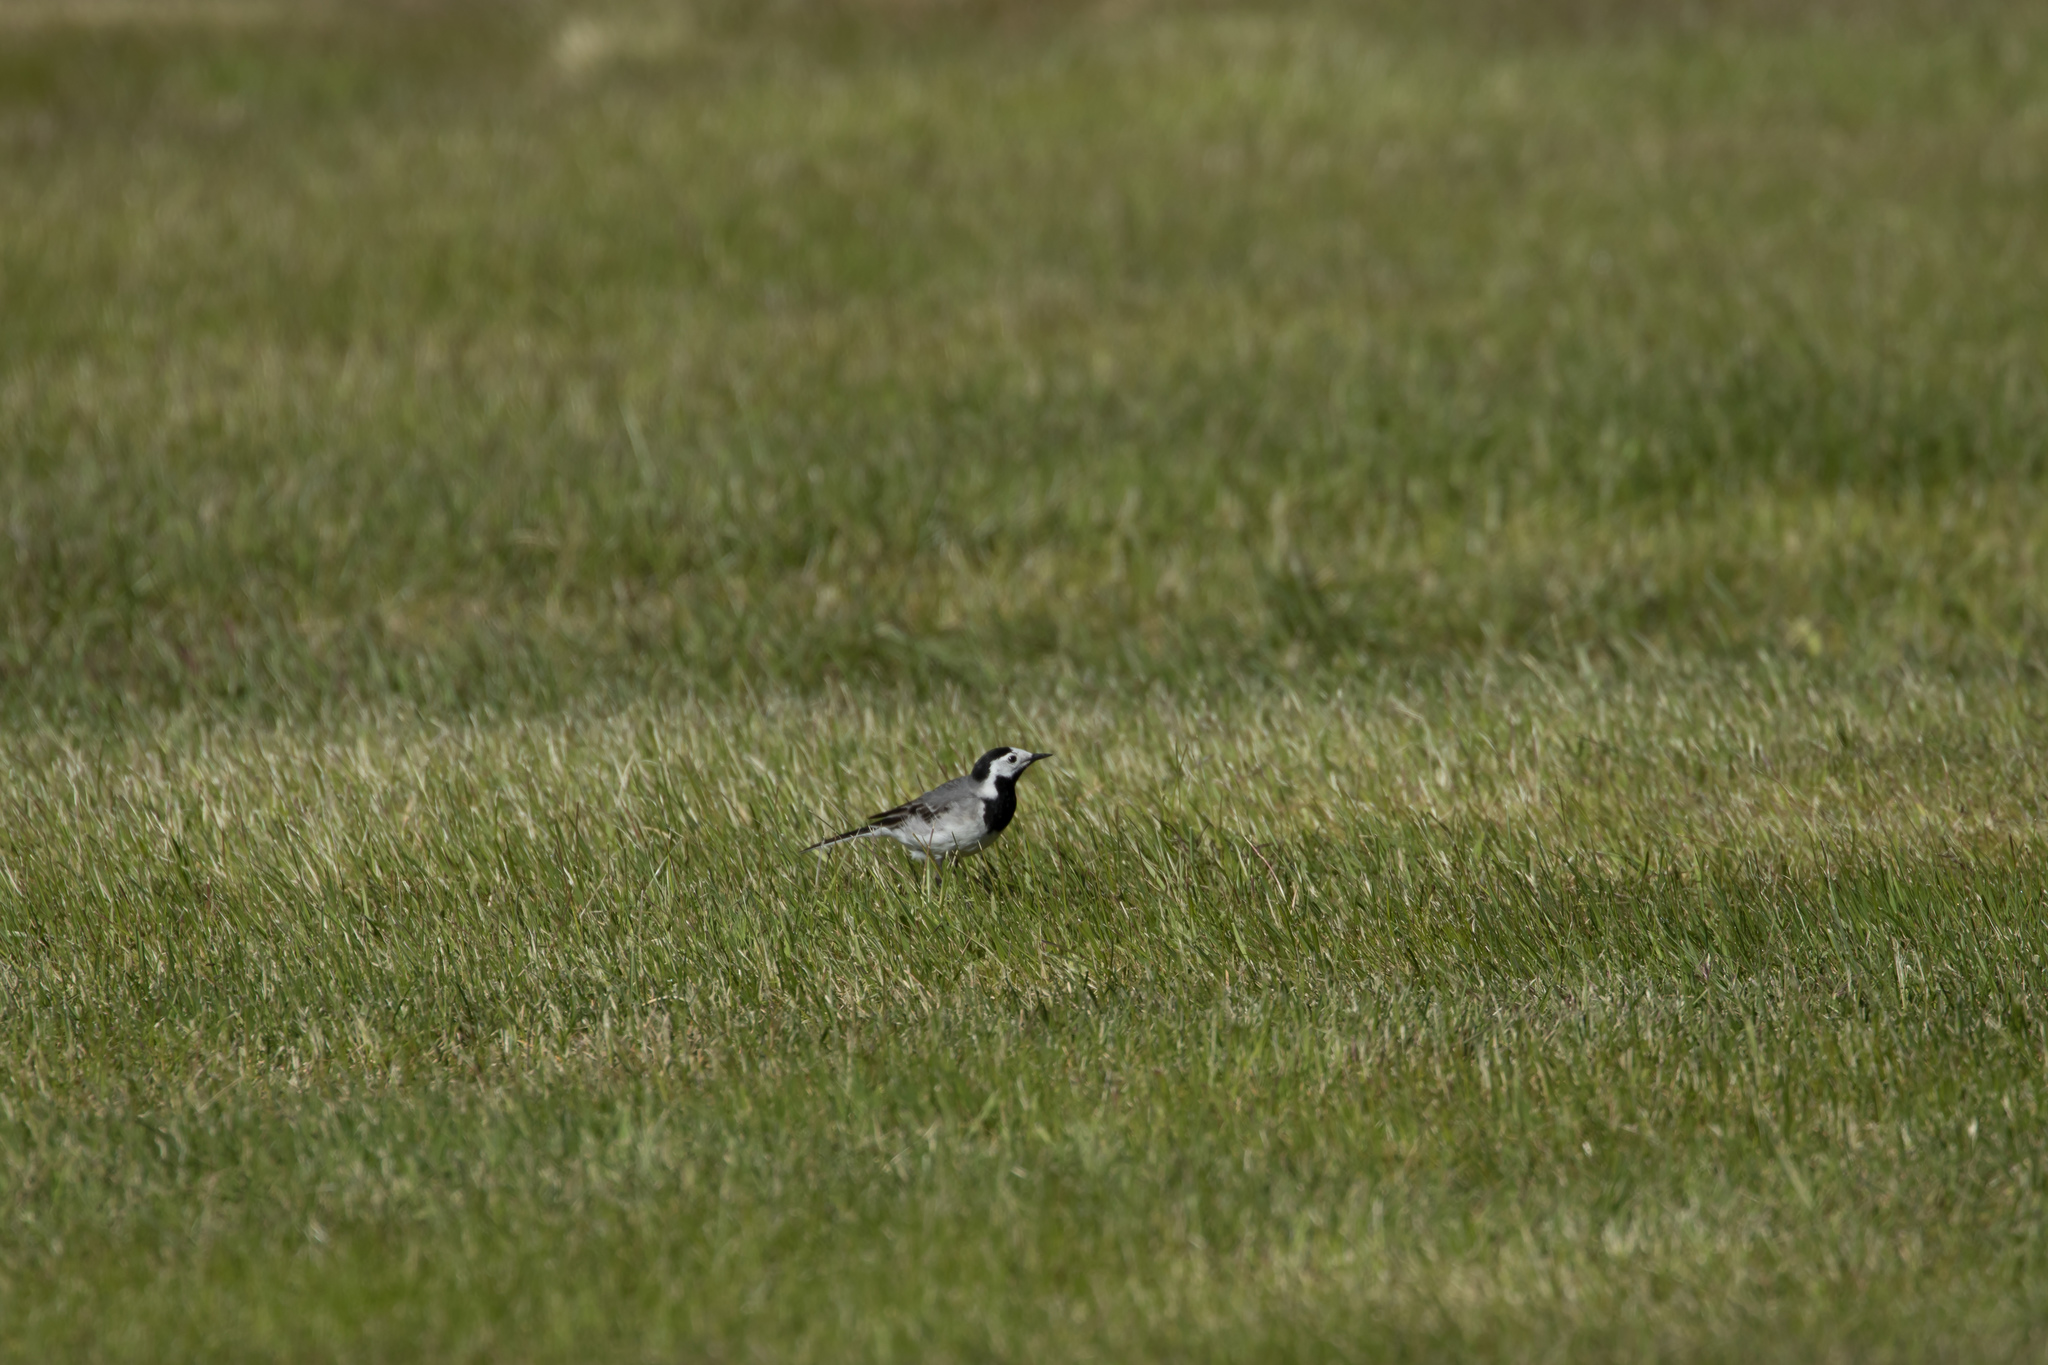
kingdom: Animalia
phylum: Chordata
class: Aves
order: Passeriformes
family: Motacillidae
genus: Motacilla
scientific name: Motacilla alba
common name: White wagtail
